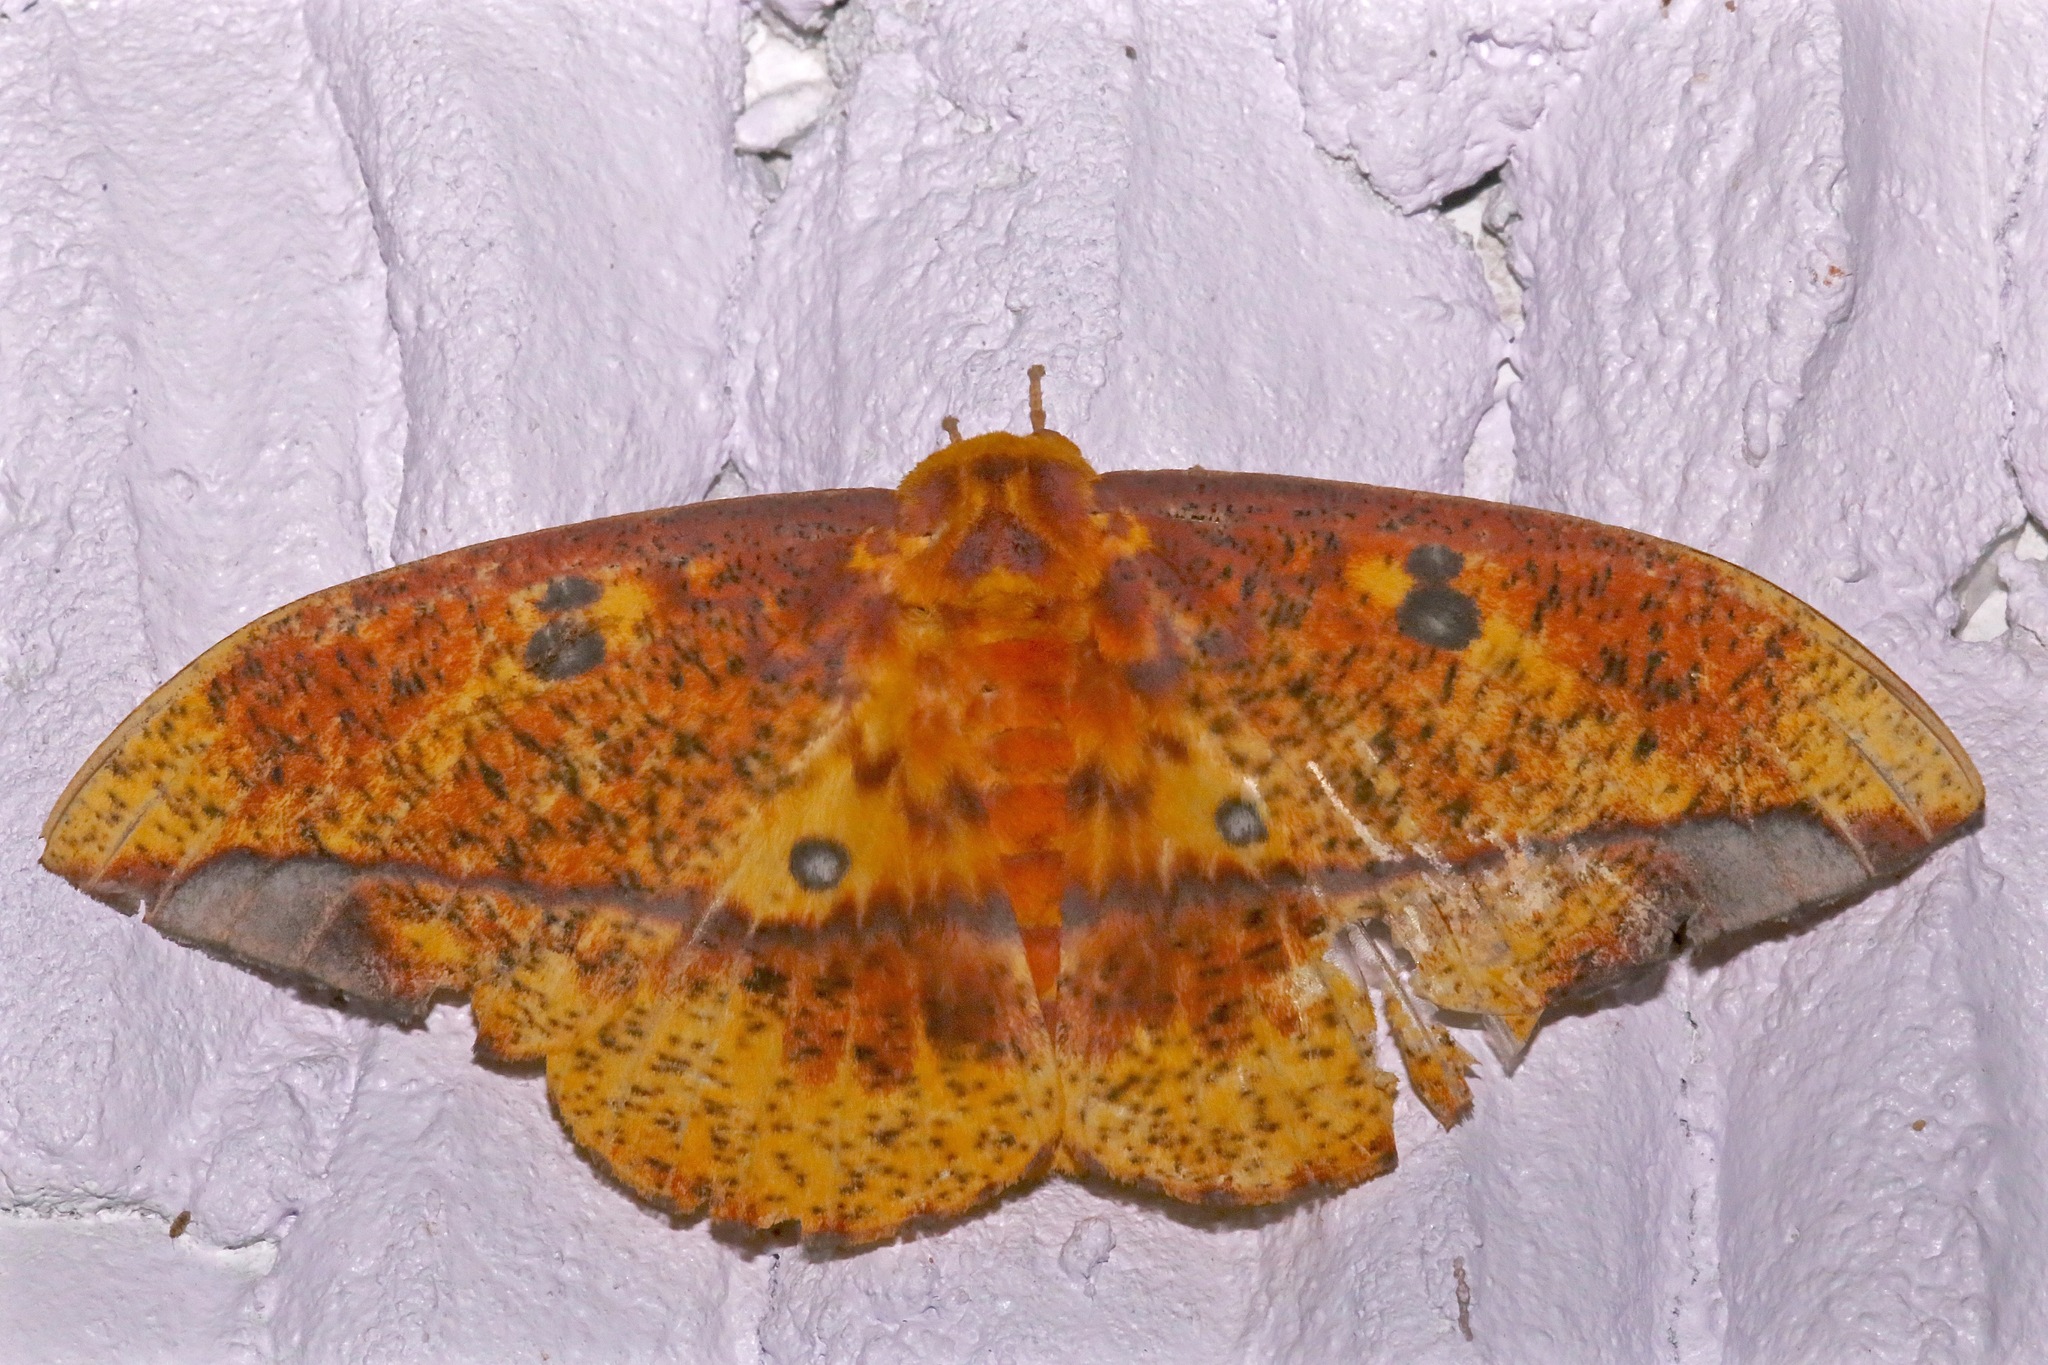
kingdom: Animalia
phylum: Arthropoda
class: Insecta
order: Lepidoptera
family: Saturniidae
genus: Eacles
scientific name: Eacles ormondei
